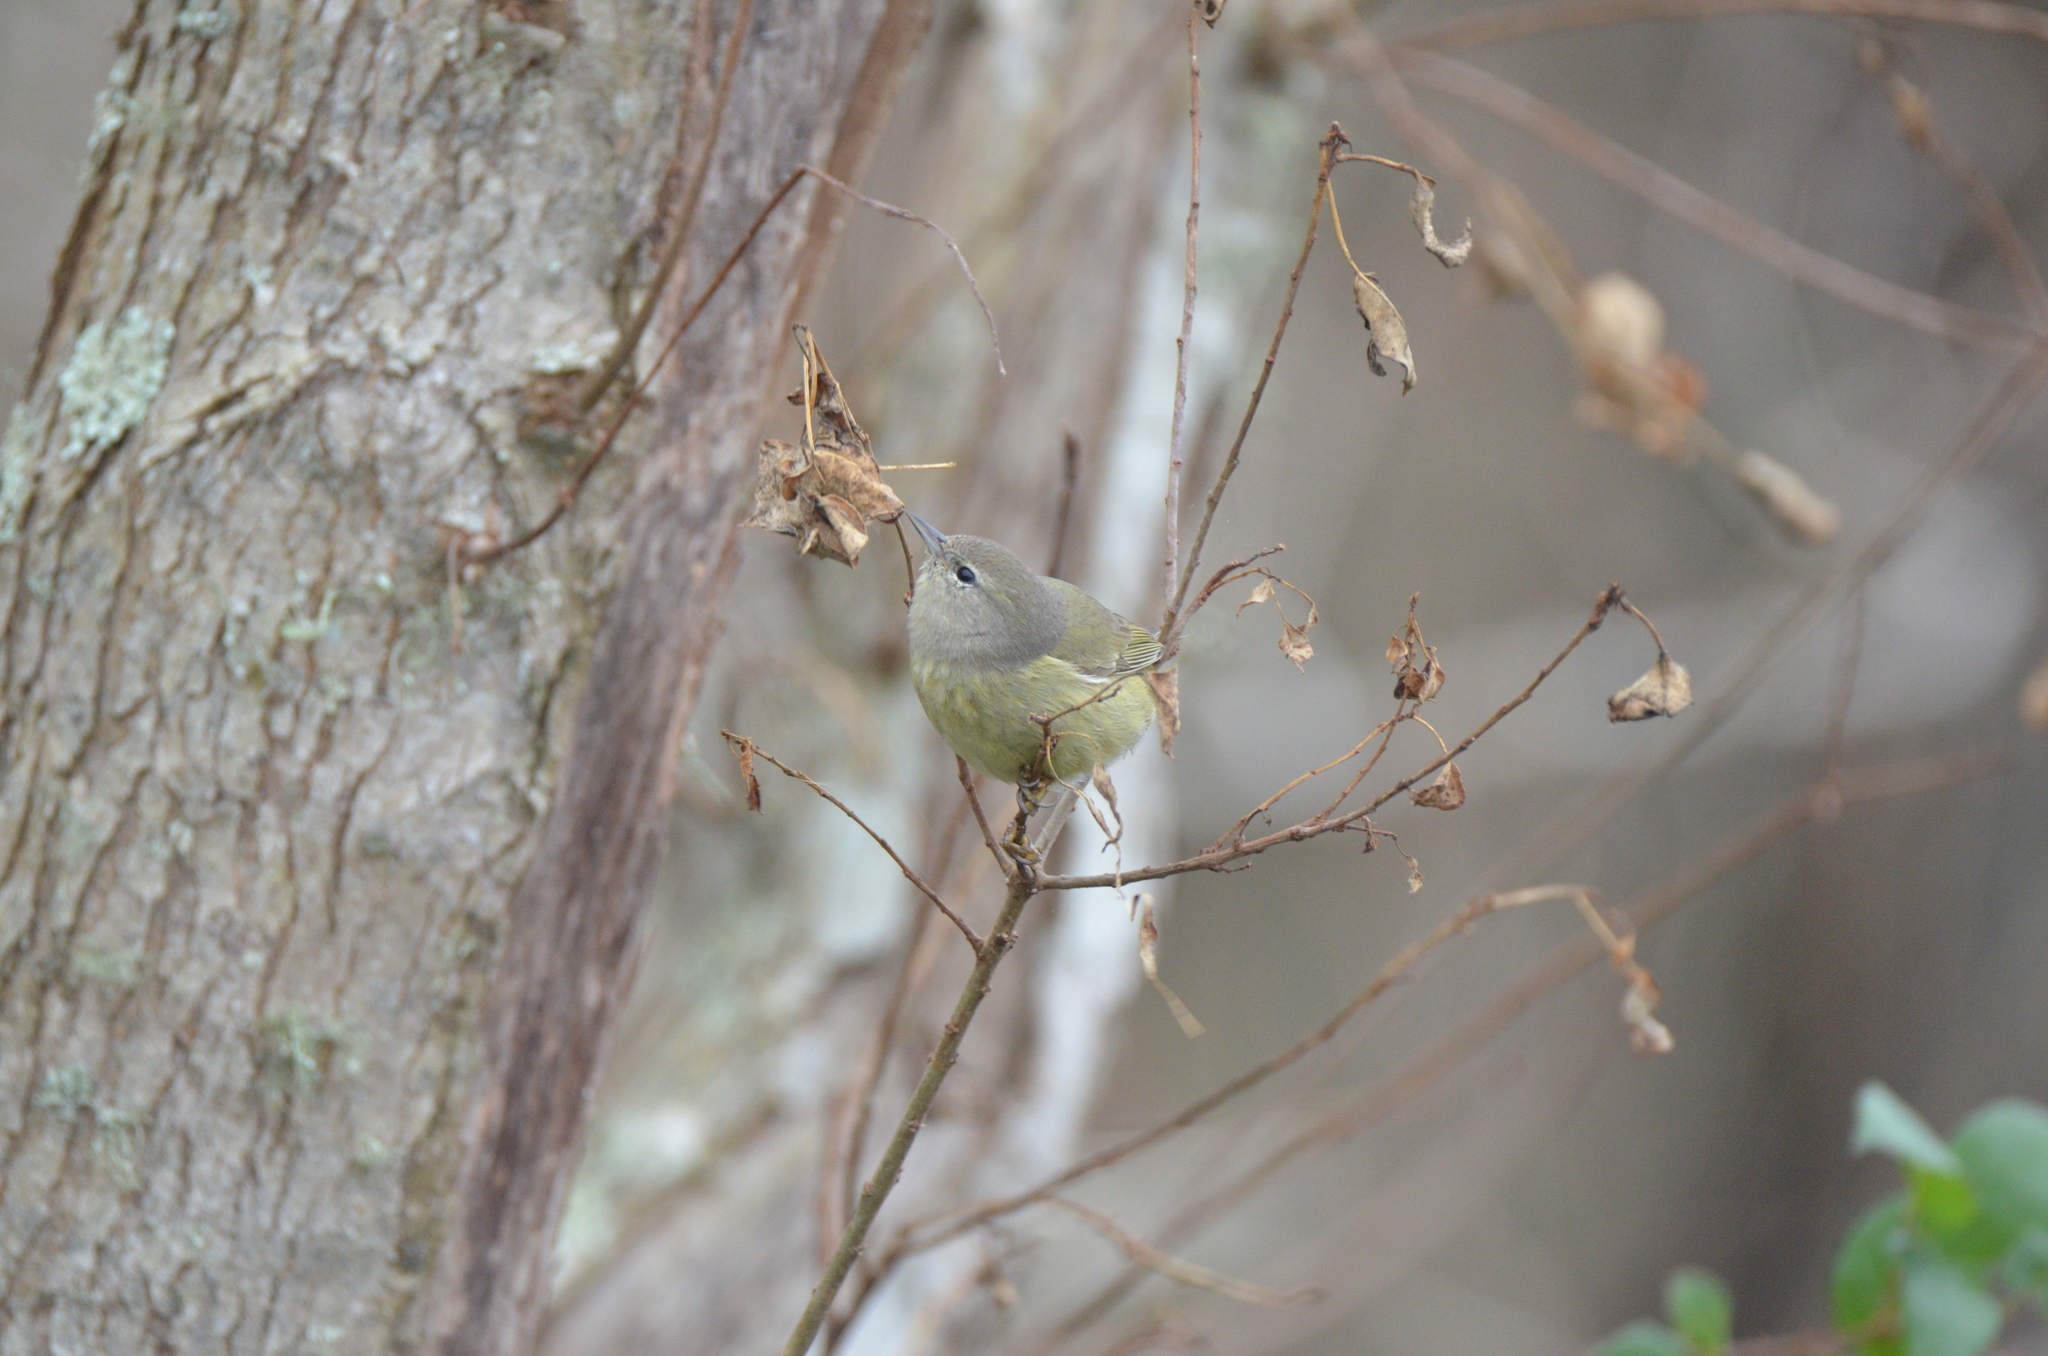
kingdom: Animalia
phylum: Chordata
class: Aves
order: Passeriformes
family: Parulidae
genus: Leiothlypis
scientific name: Leiothlypis celata
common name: Orange-crowned warbler
